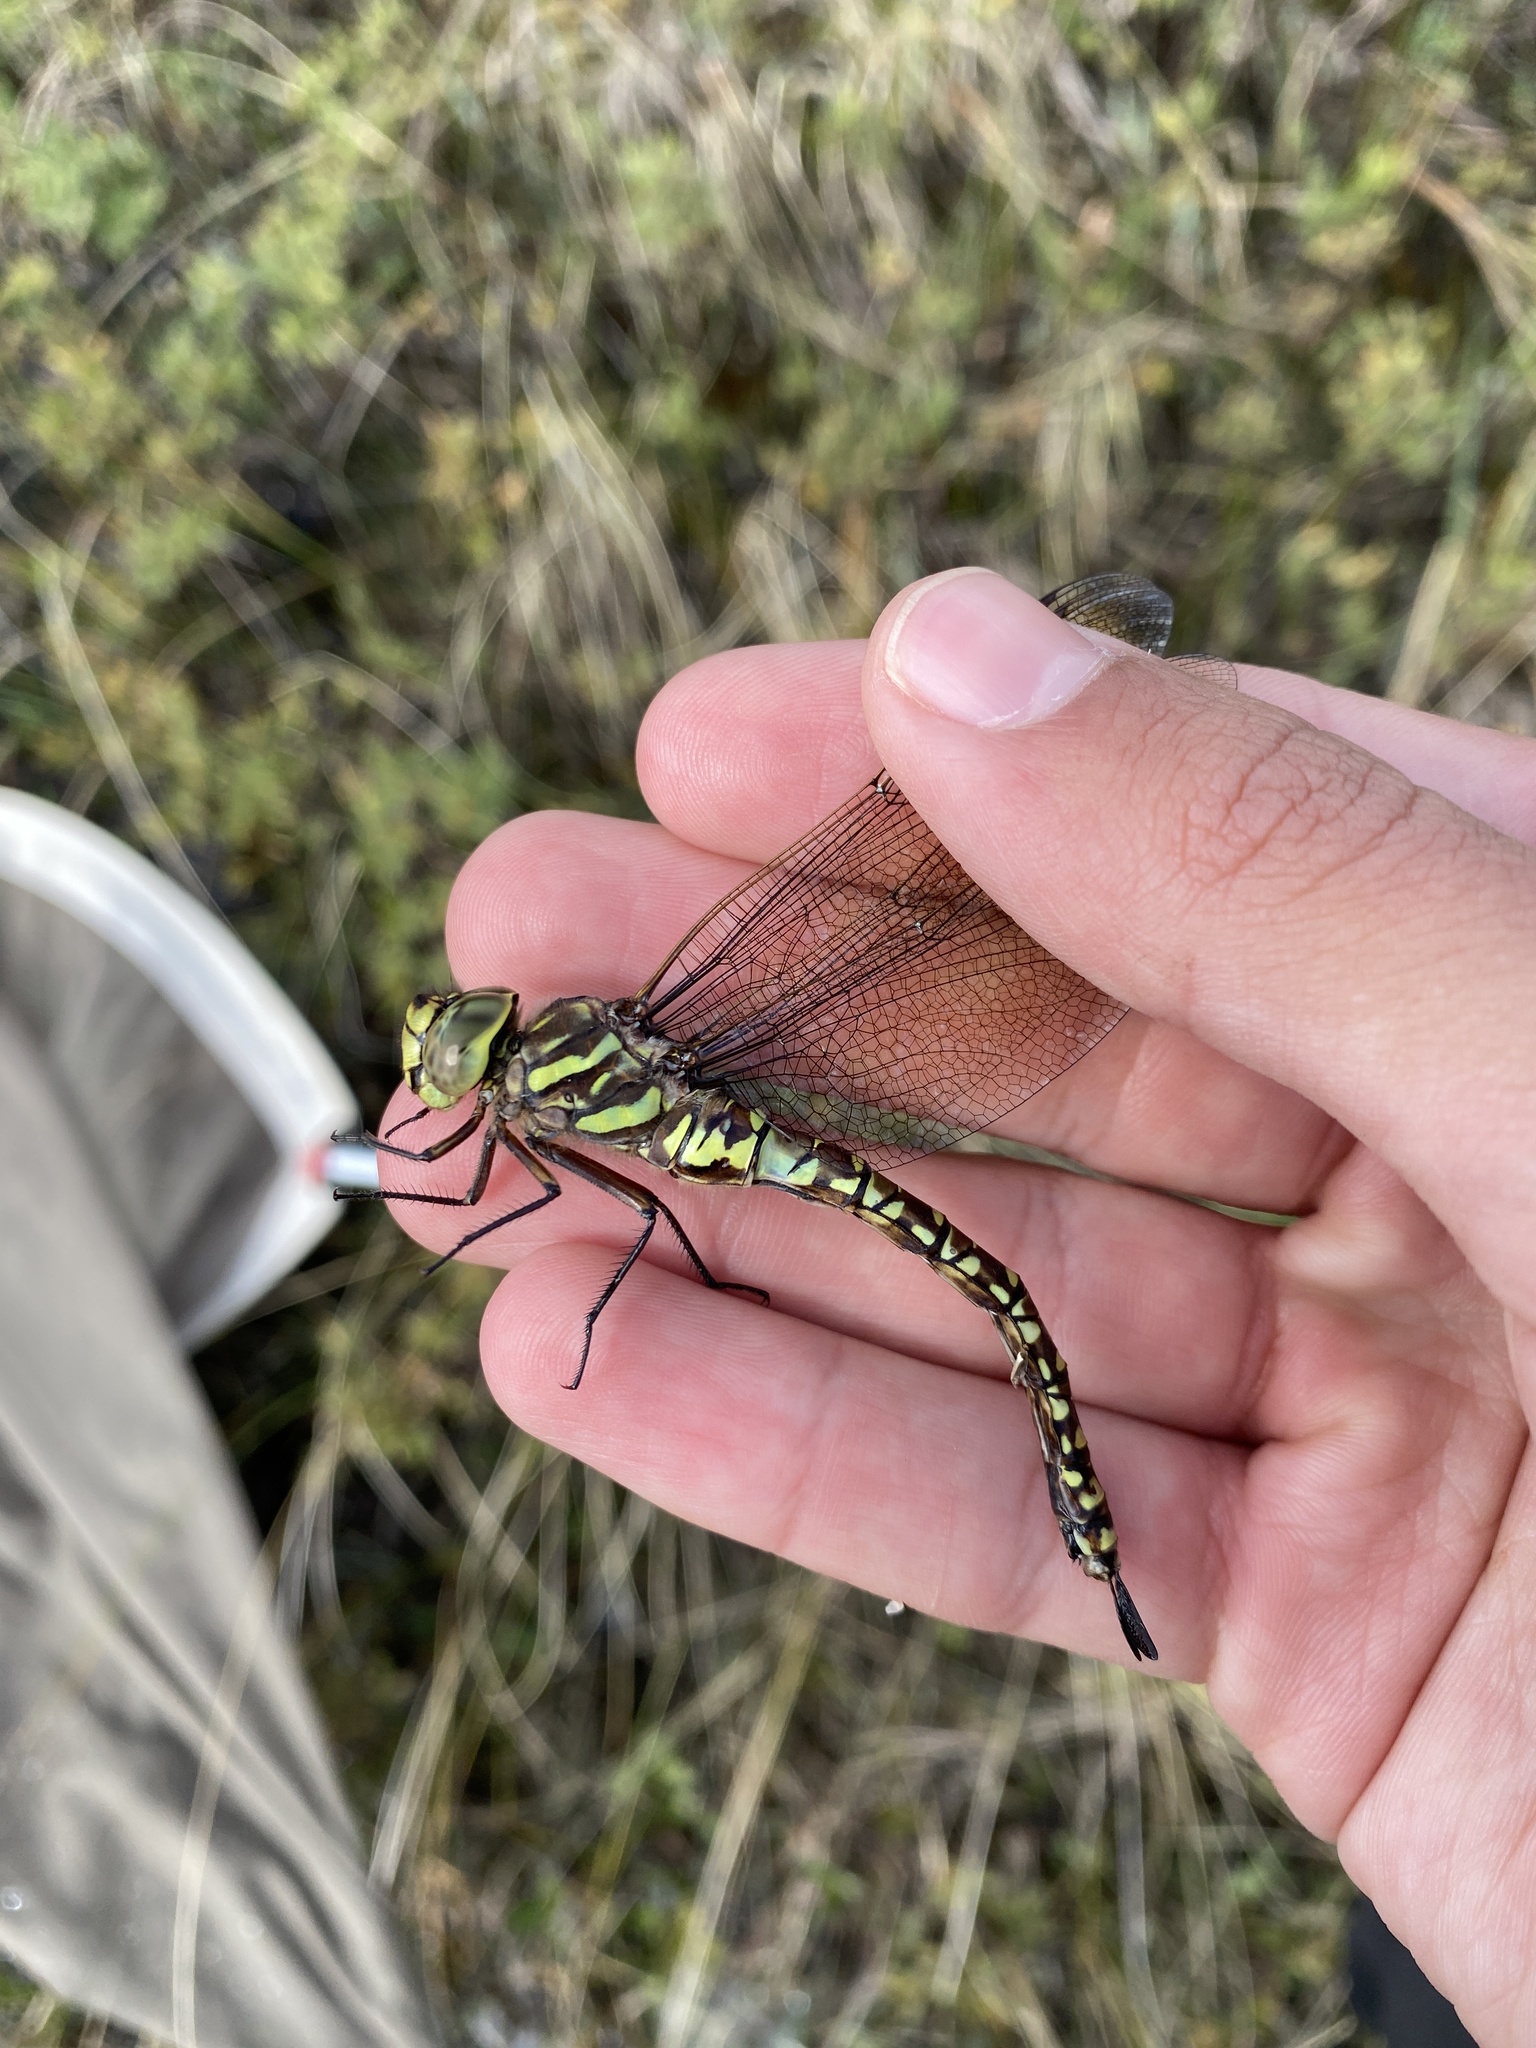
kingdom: Animalia
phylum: Arthropoda
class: Insecta
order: Odonata
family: Aeshnidae
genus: Aeshna
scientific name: Aeshna subarctica
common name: Subarctic darner
